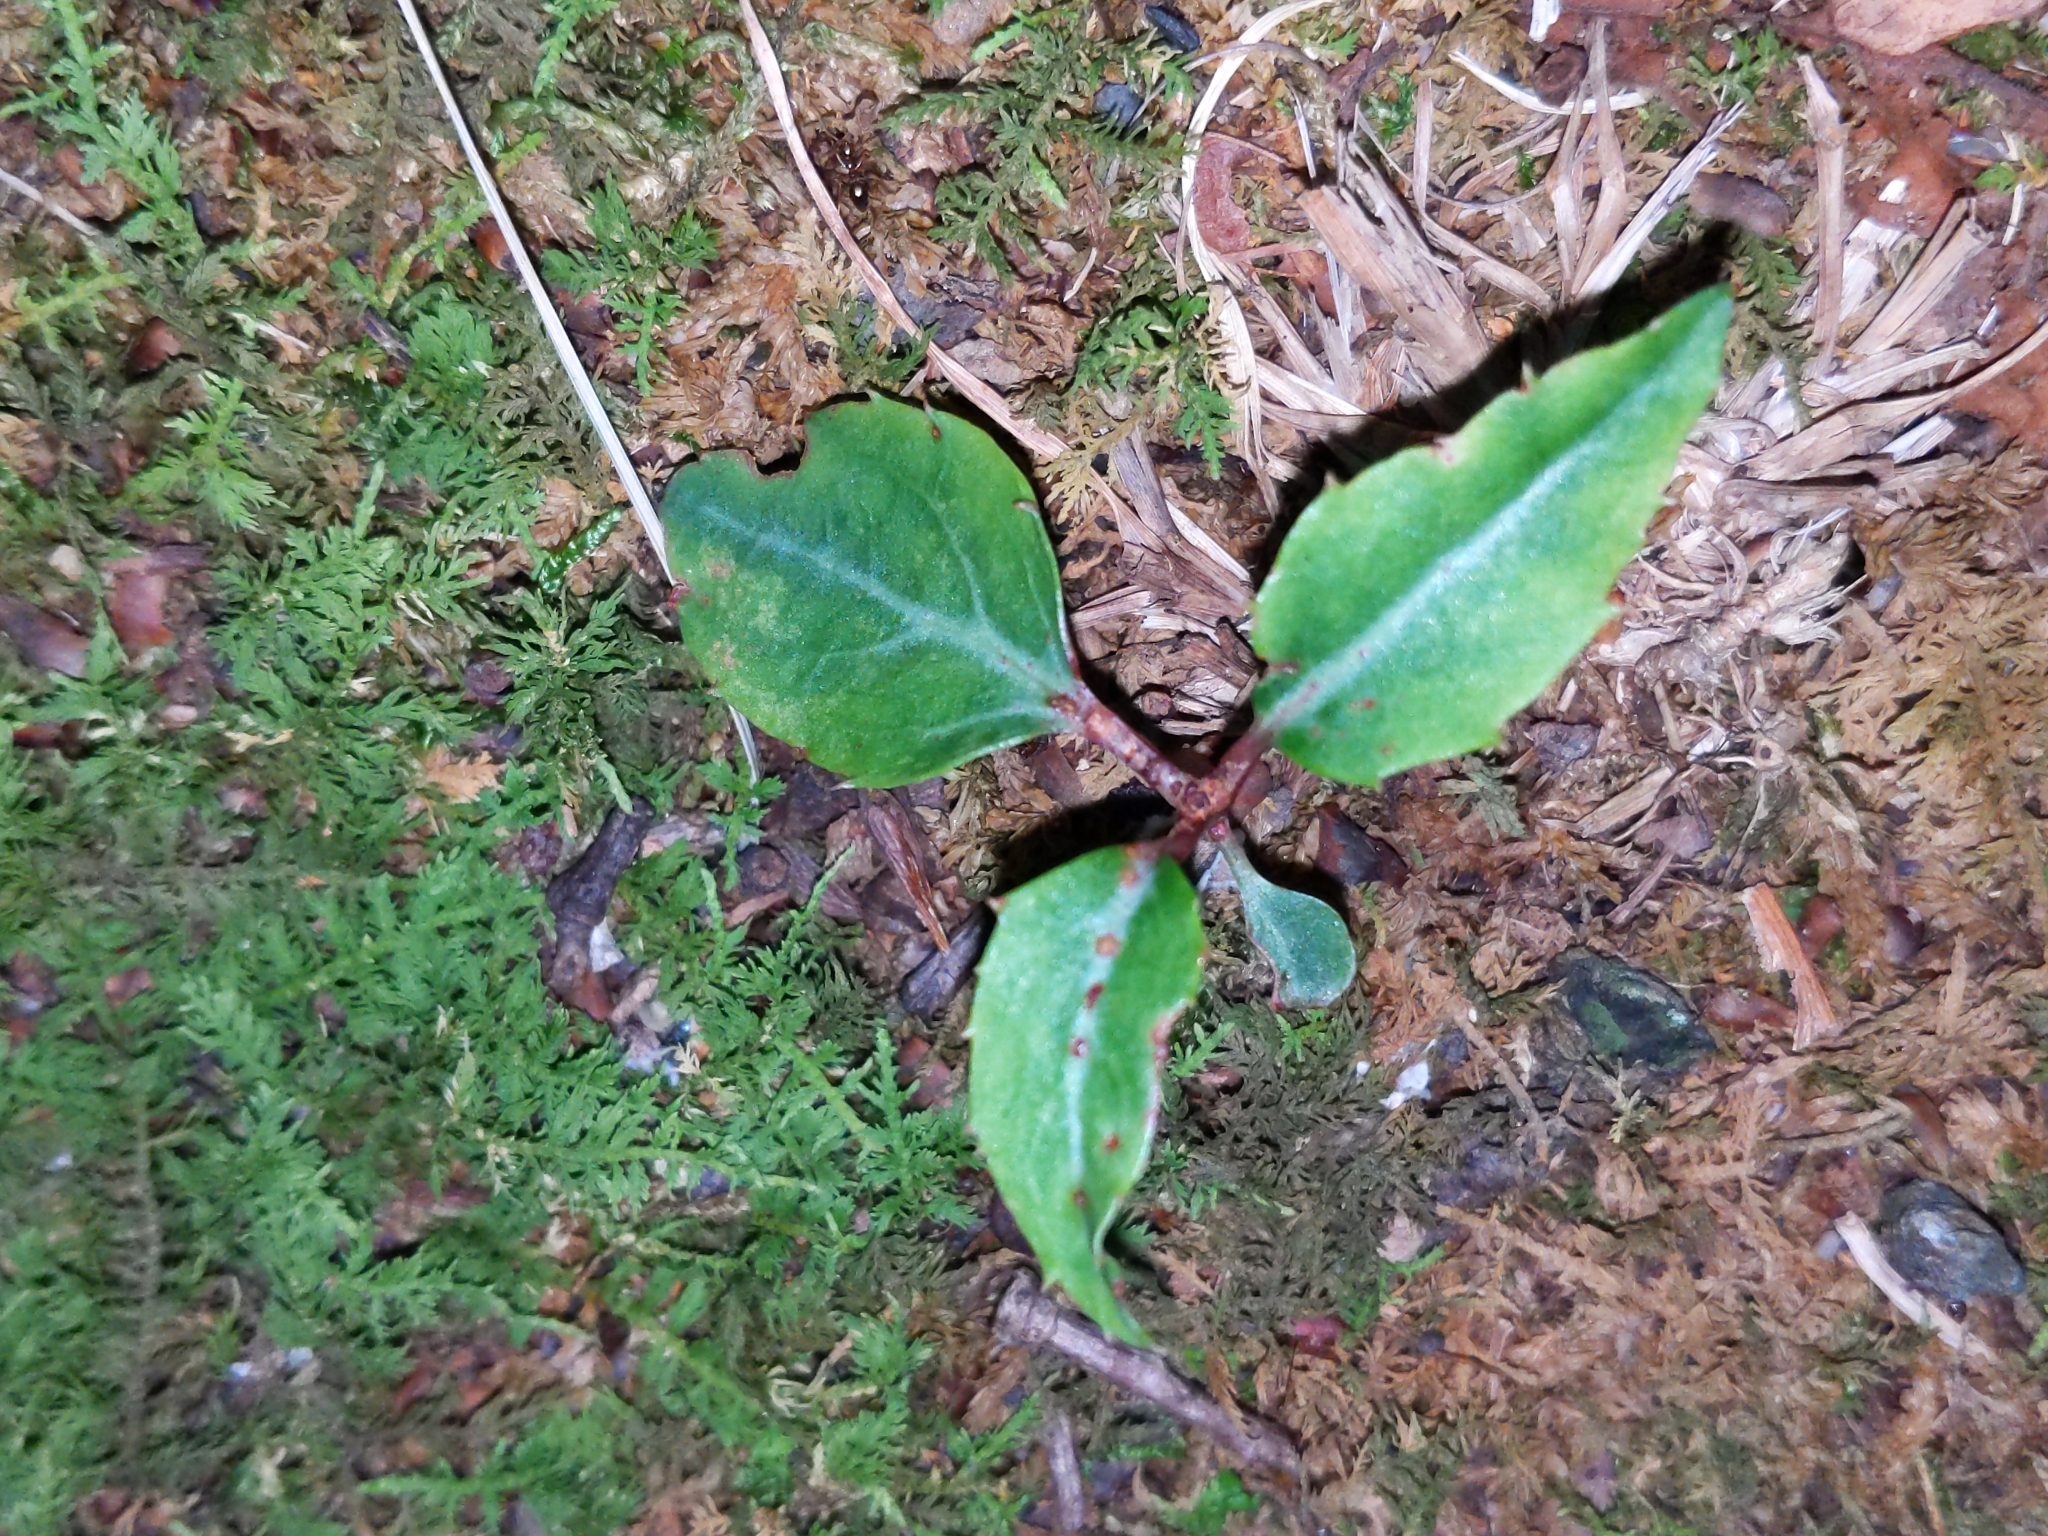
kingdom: Plantae
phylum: Tracheophyta
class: Magnoliopsida
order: Ericales
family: Ericaceae
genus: Chimaphila
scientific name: Chimaphila maculata
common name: Spotted pipsissewa
